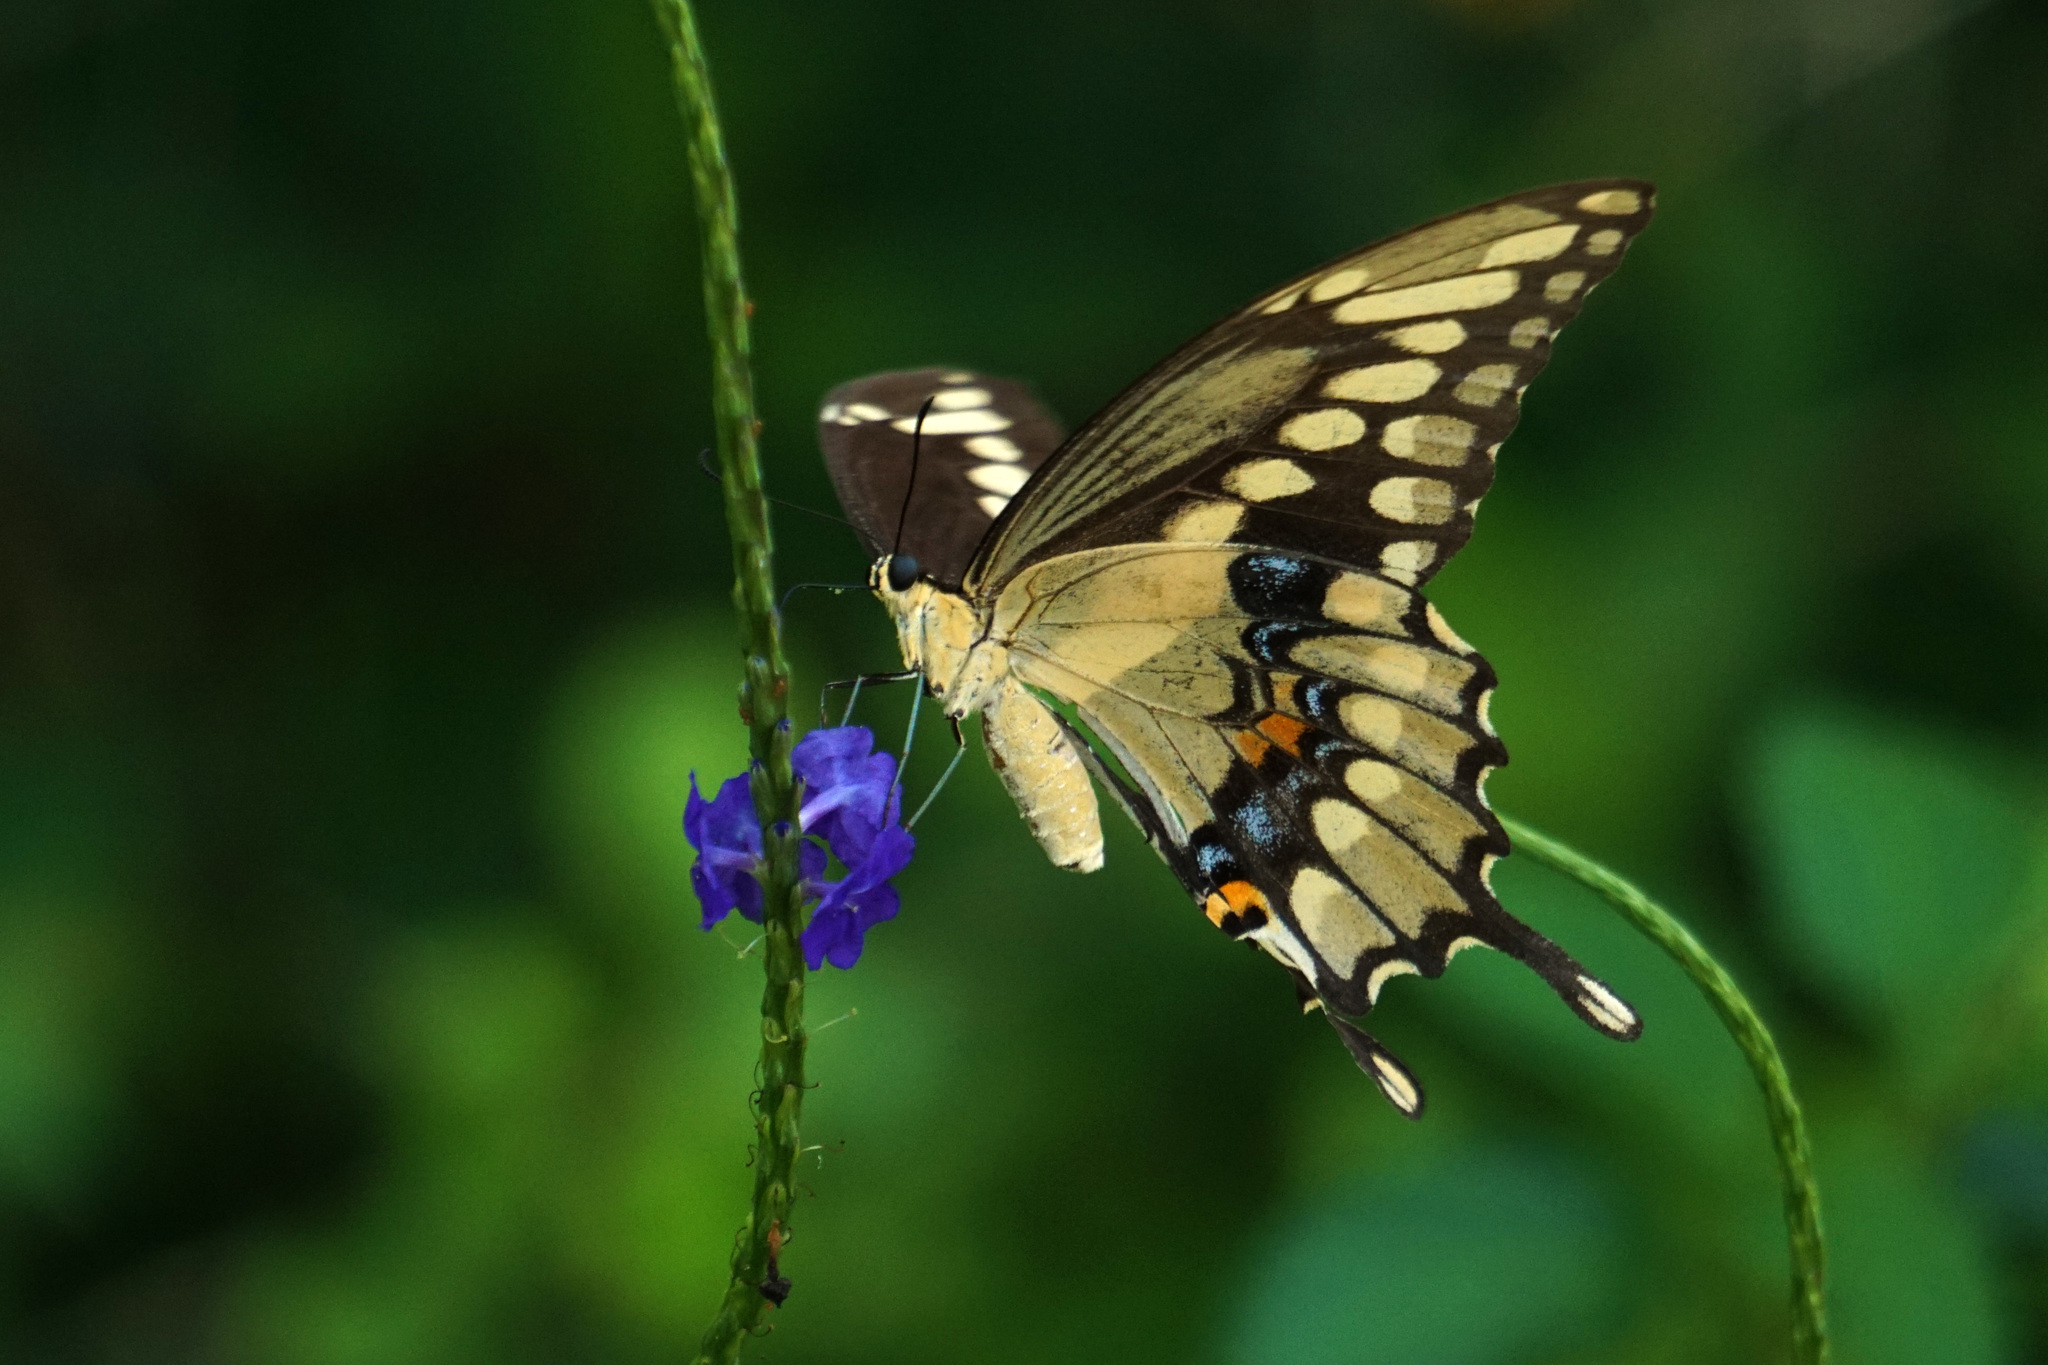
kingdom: Animalia
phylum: Arthropoda
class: Insecta
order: Lepidoptera
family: Papilionidae
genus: Papilio
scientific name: Papilio cresphontes
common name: Giant swallowtail
